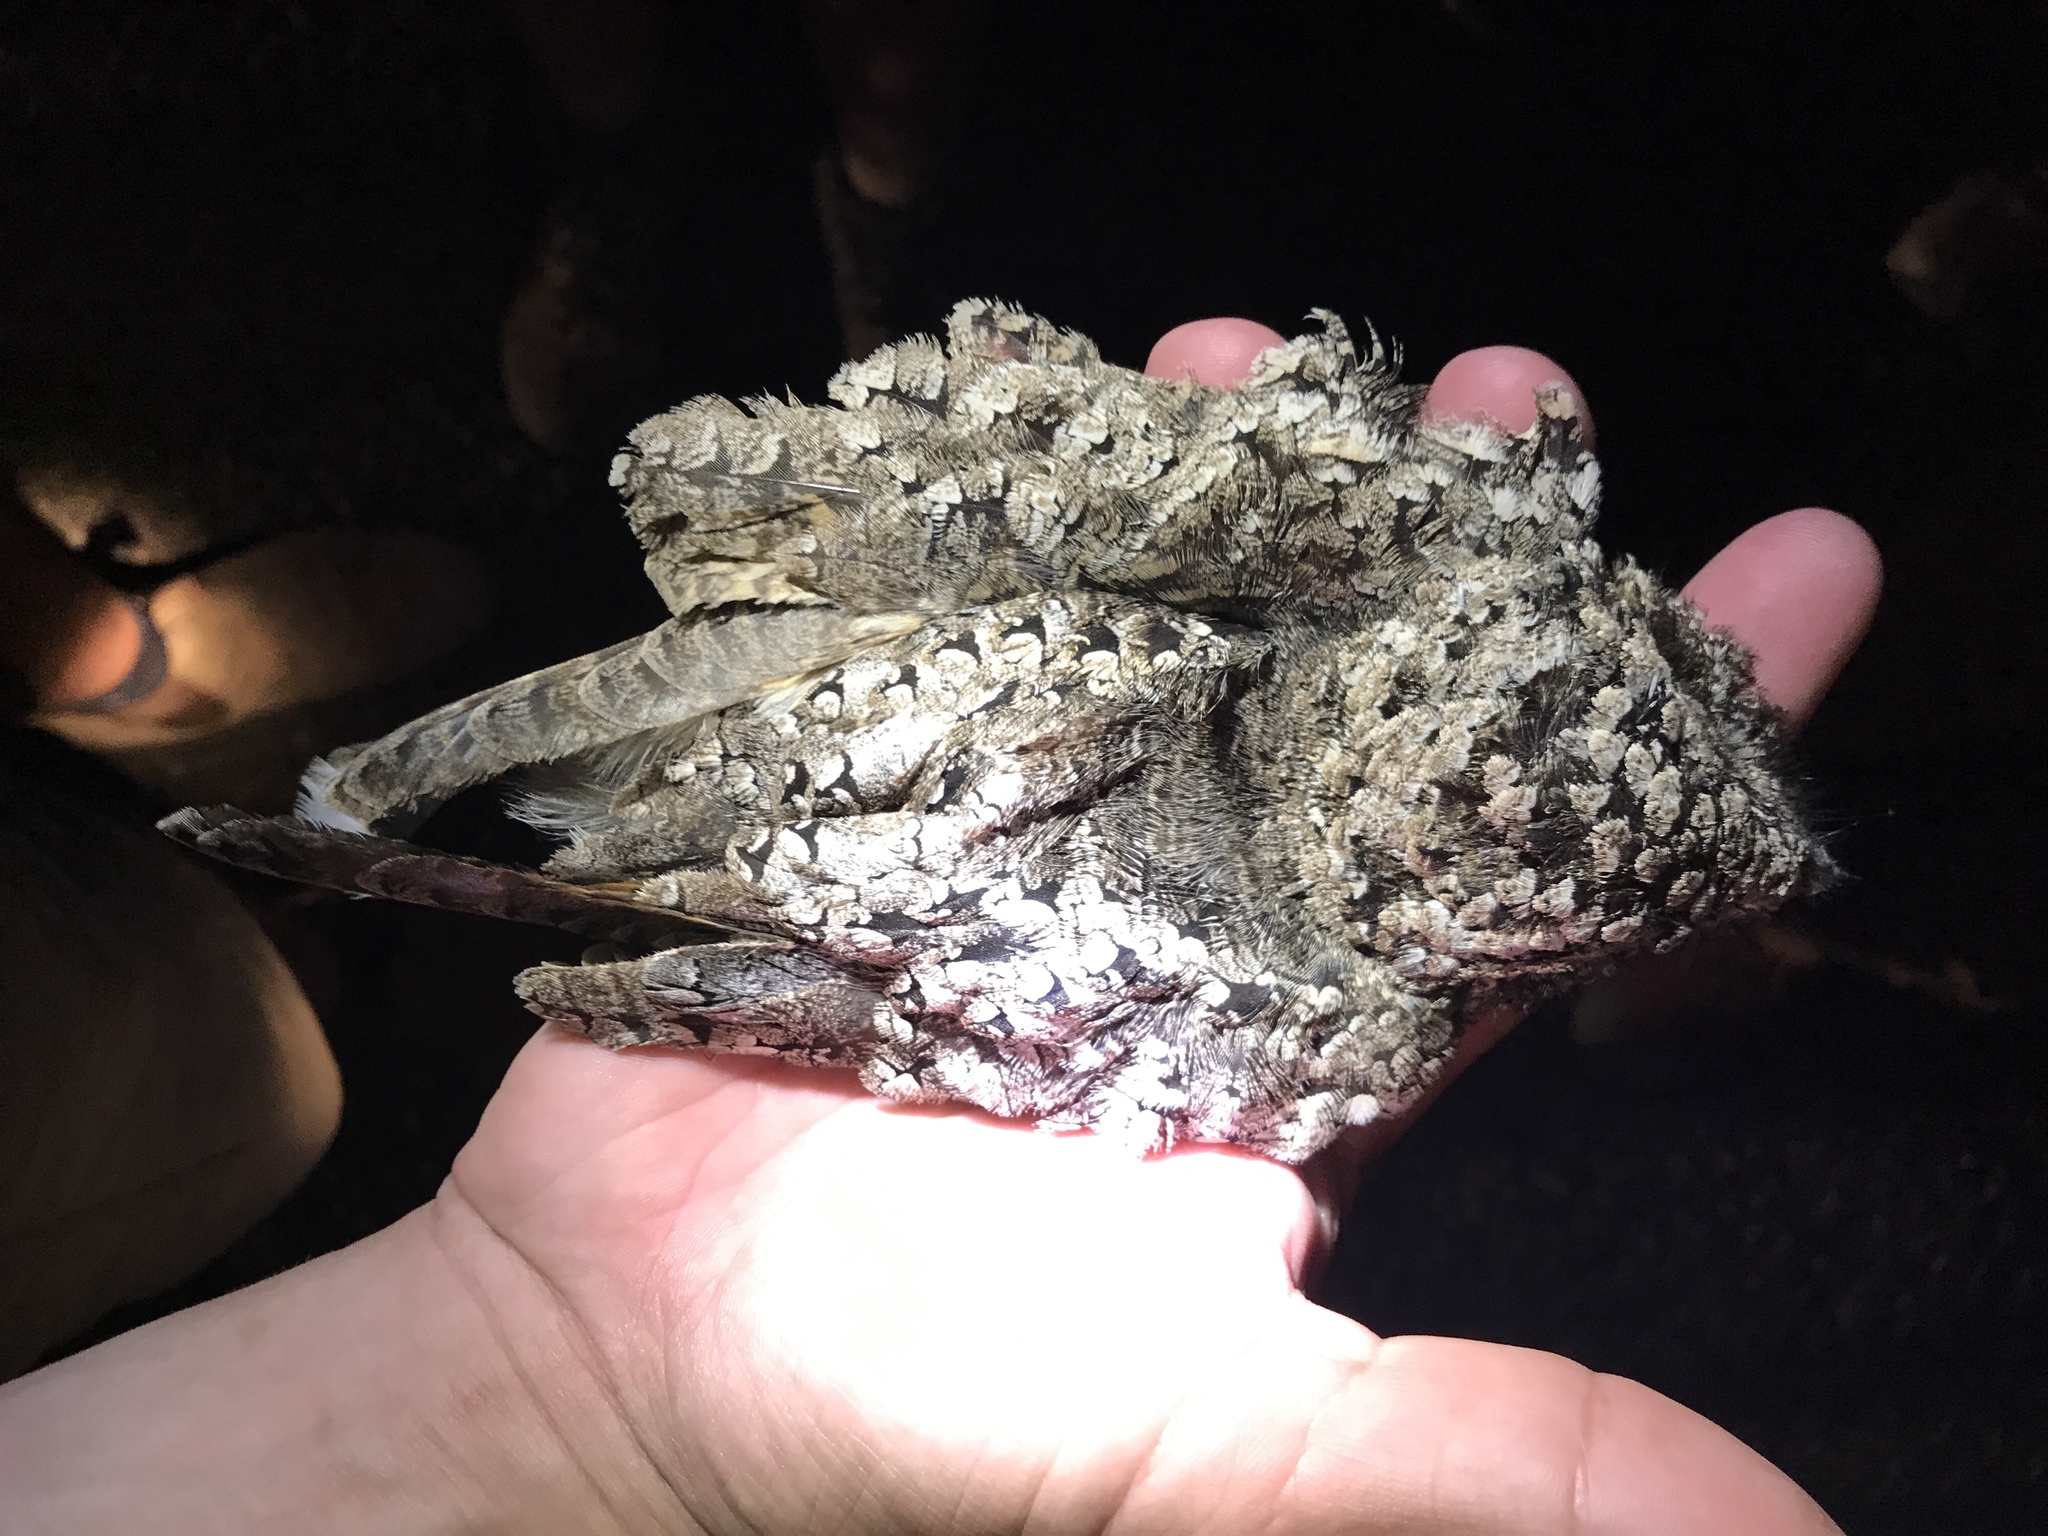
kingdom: Animalia
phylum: Chordata
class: Aves
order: Caprimulgiformes
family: Caprimulgidae
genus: Phalaenoptilus
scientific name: Phalaenoptilus nuttallii
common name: Common poorwill
